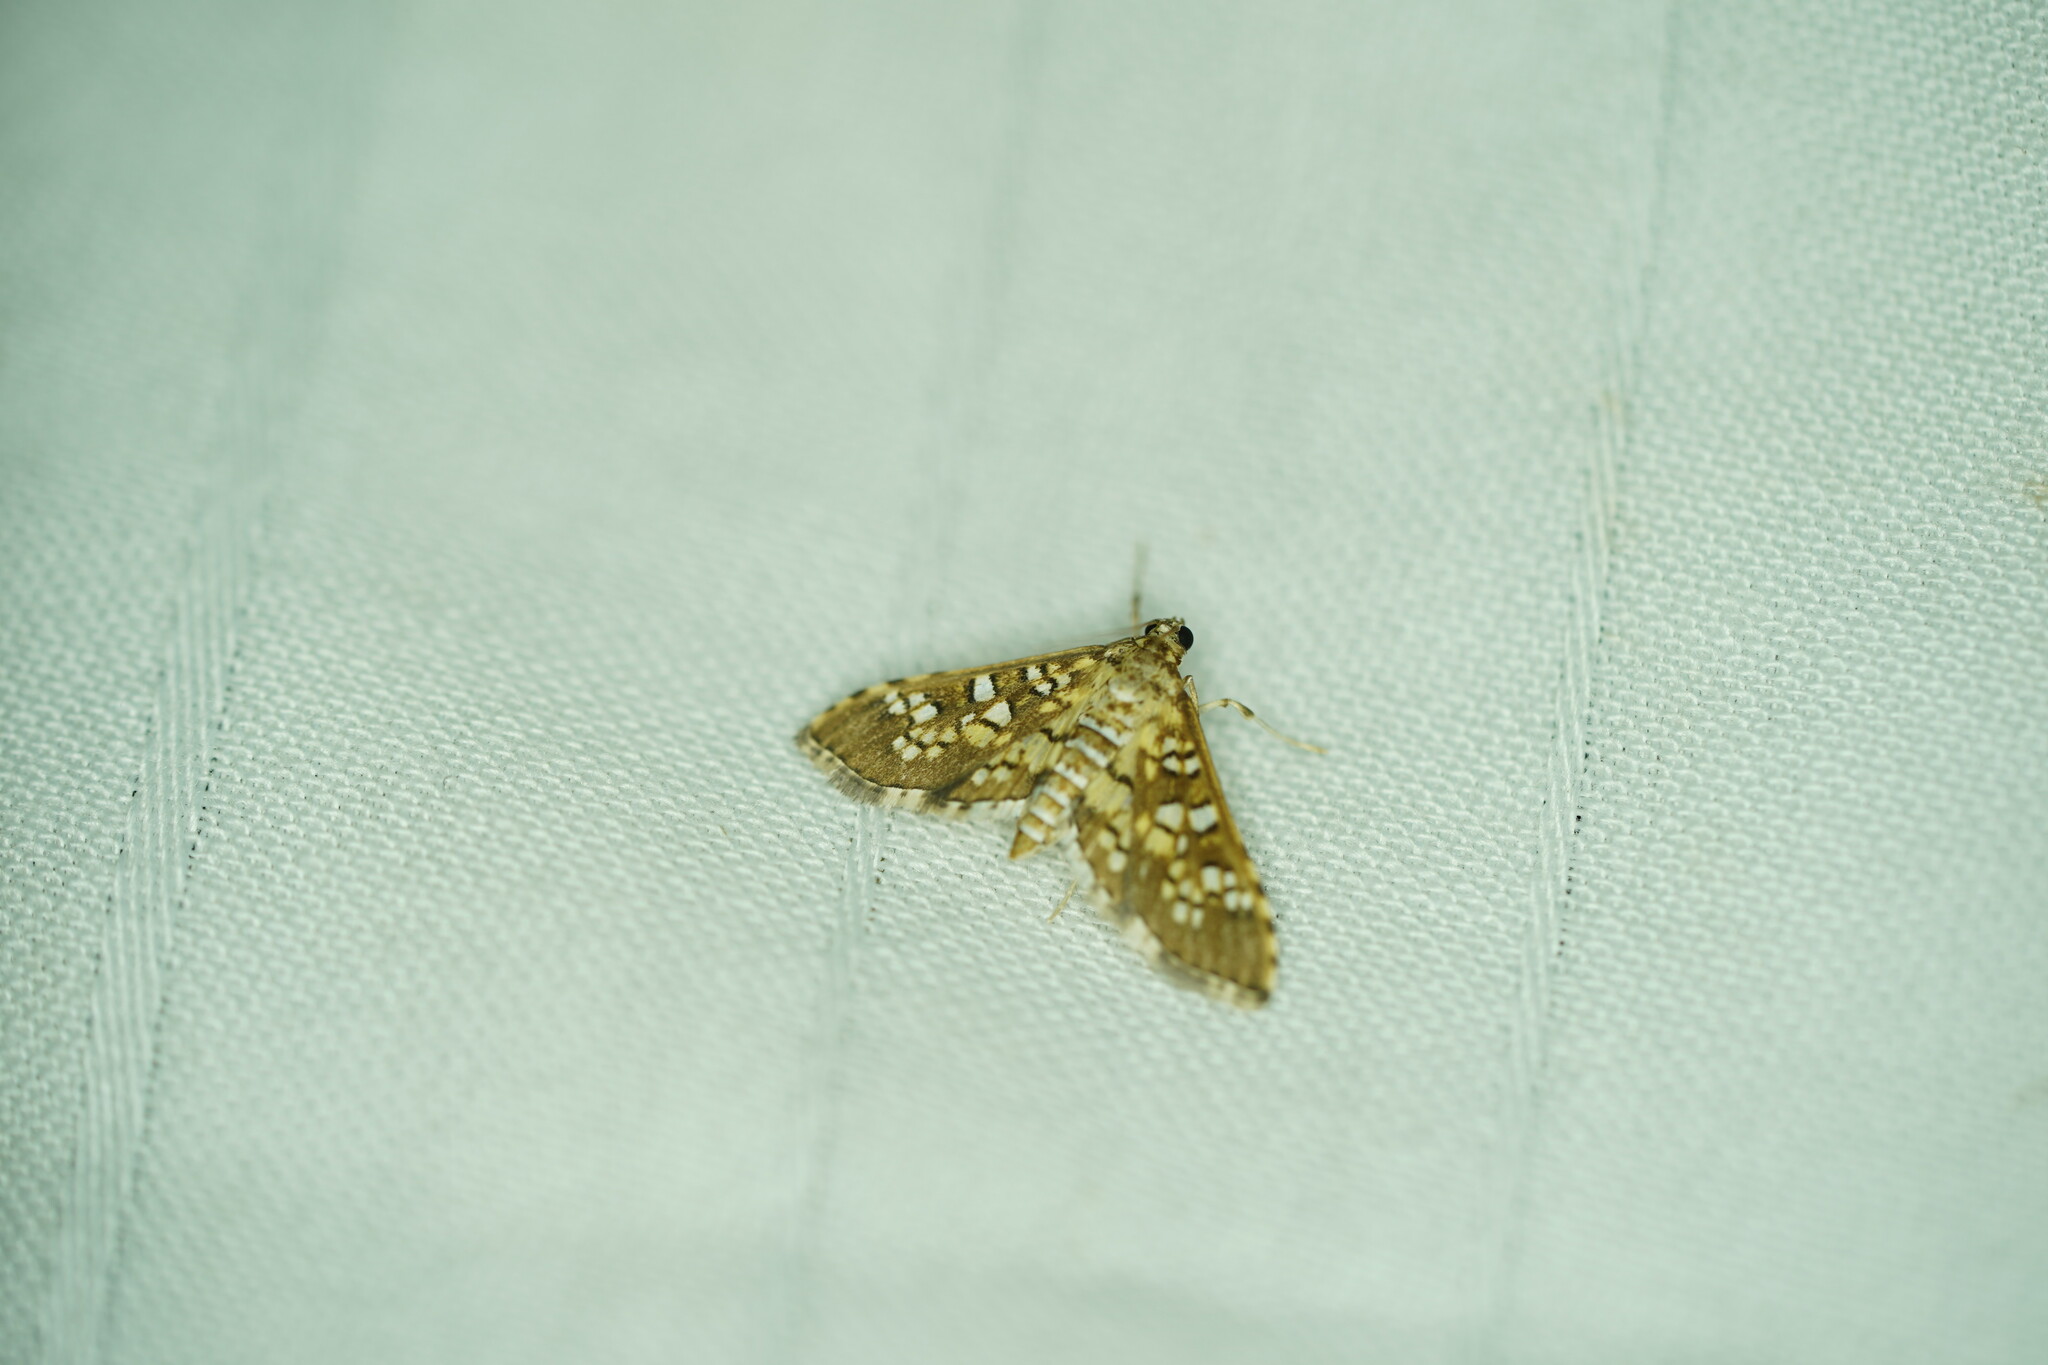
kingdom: Animalia
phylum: Arthropoda
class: Insecta
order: Lepidoptera
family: Crambidae
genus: Samea
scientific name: Samea ecclesialis
